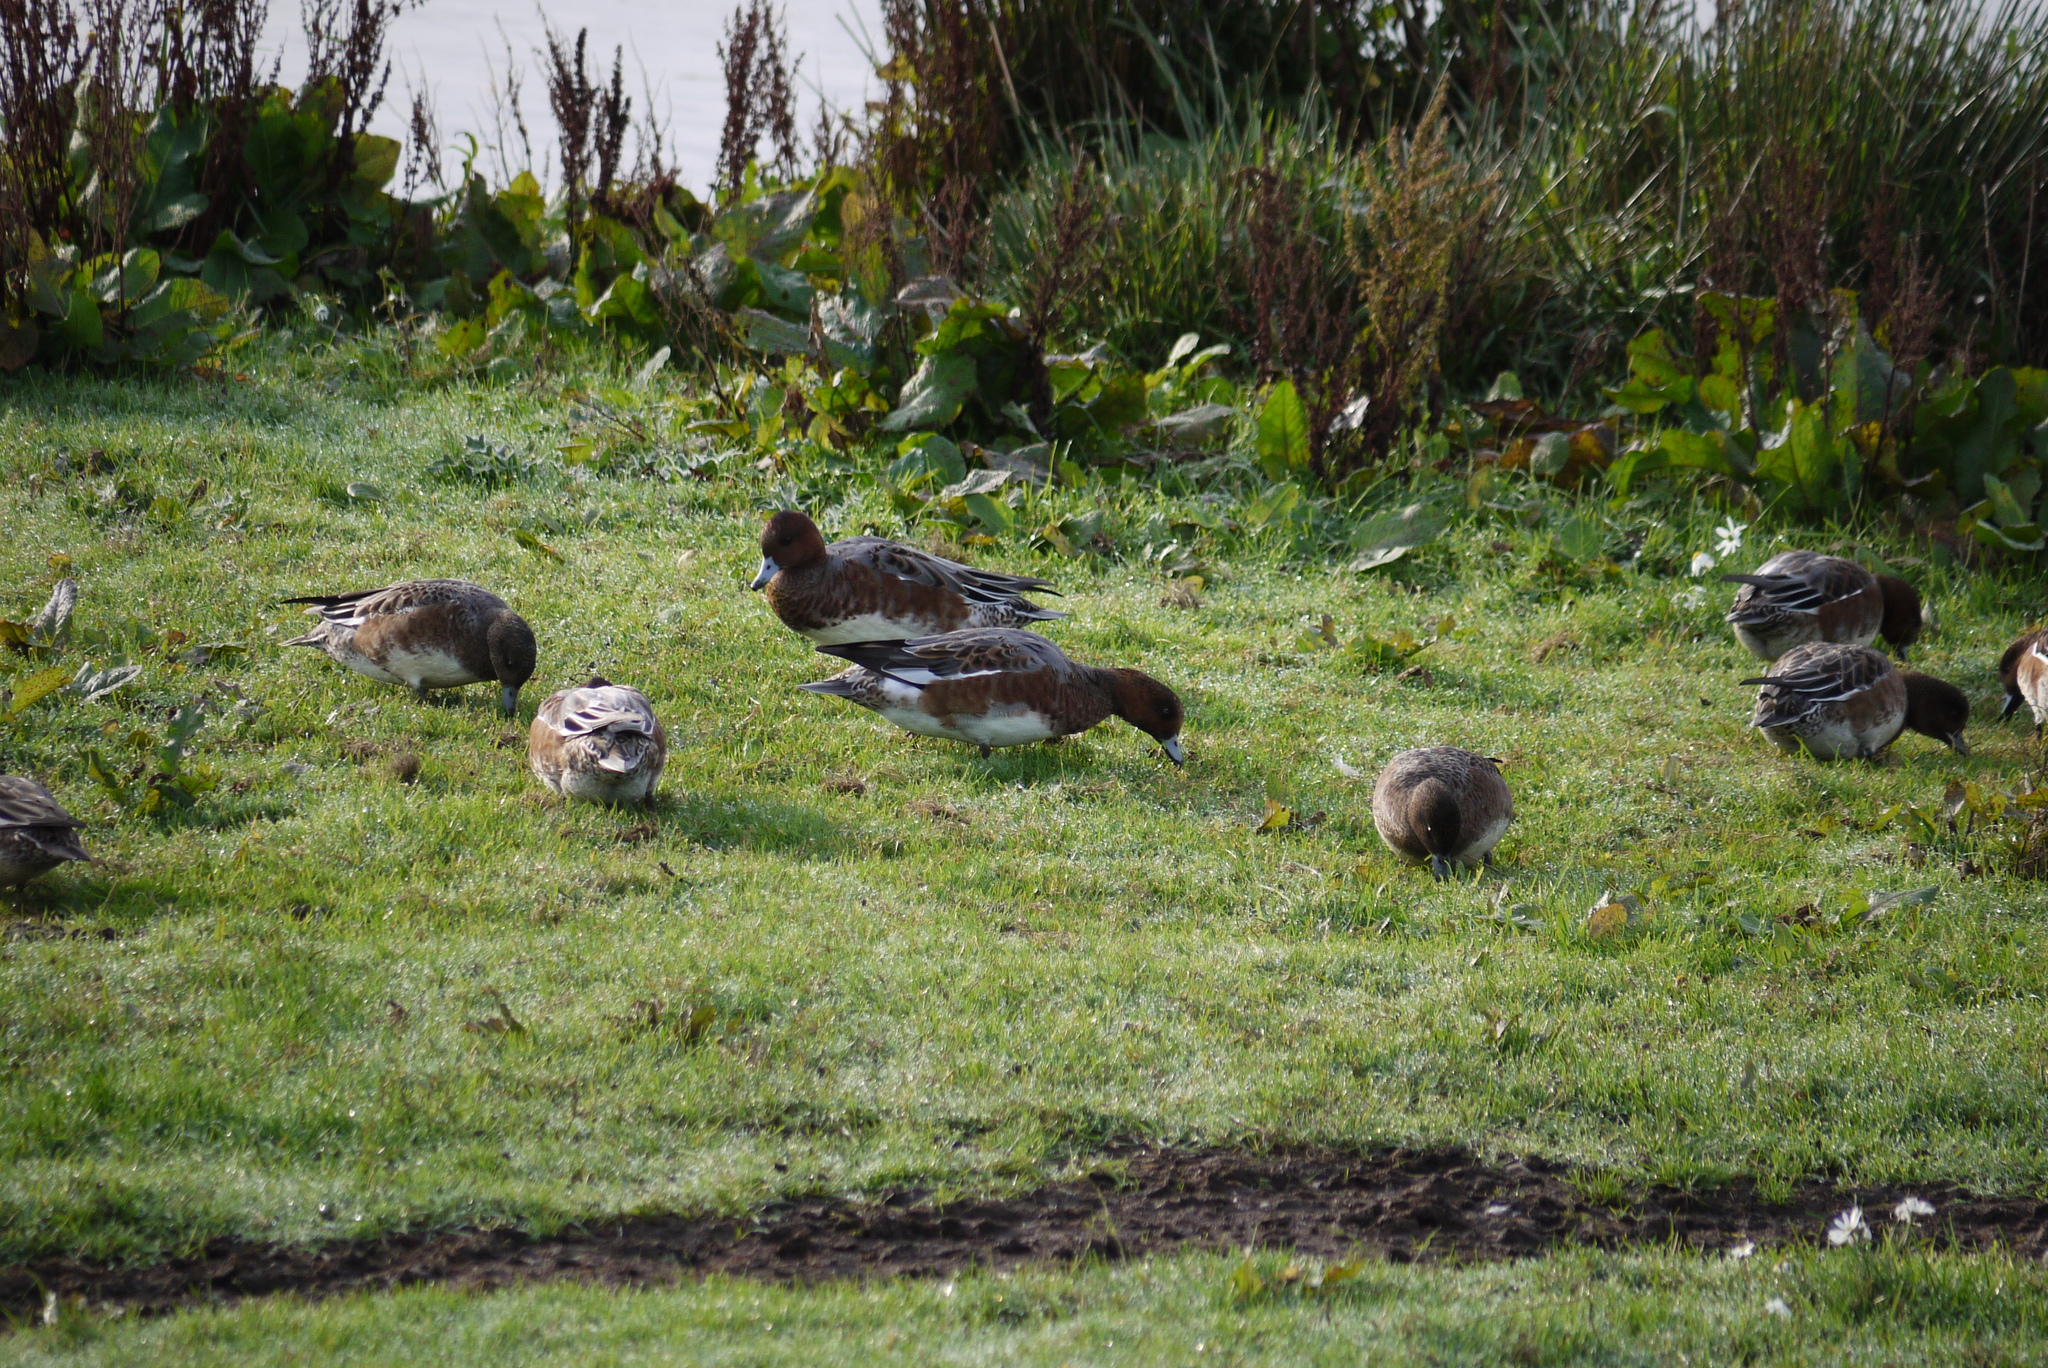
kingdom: Animalia
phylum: Chordata
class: Aves
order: Anseriformes
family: Anatidae
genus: Mareca
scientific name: Mareca penelope
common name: Eurasian wigeon
